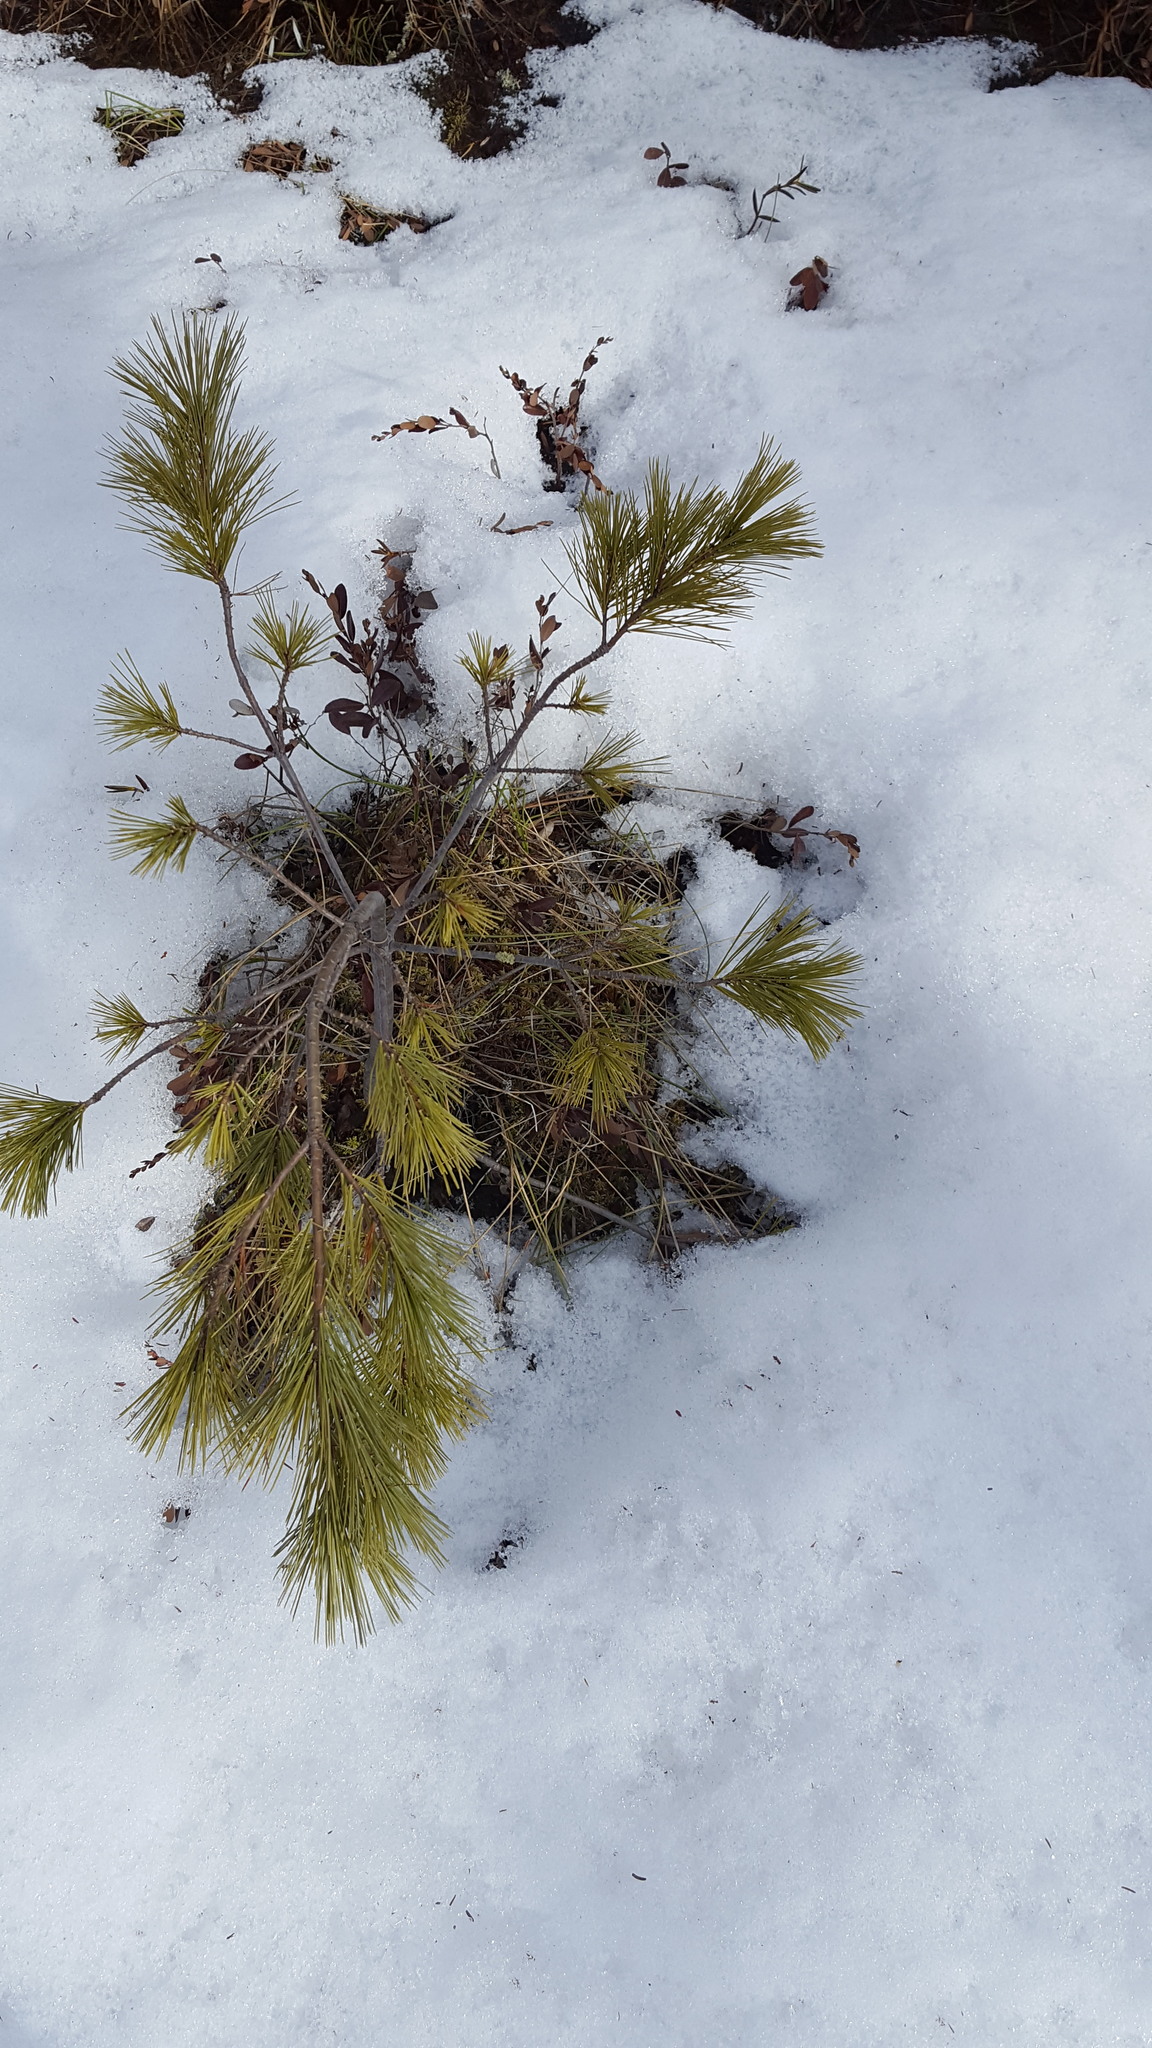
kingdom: Plantae
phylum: Tracheophyta
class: Pinopsida
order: Pinales
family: Pinaceae
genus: Pinus
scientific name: Pinus strobus
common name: Weymouth pine
